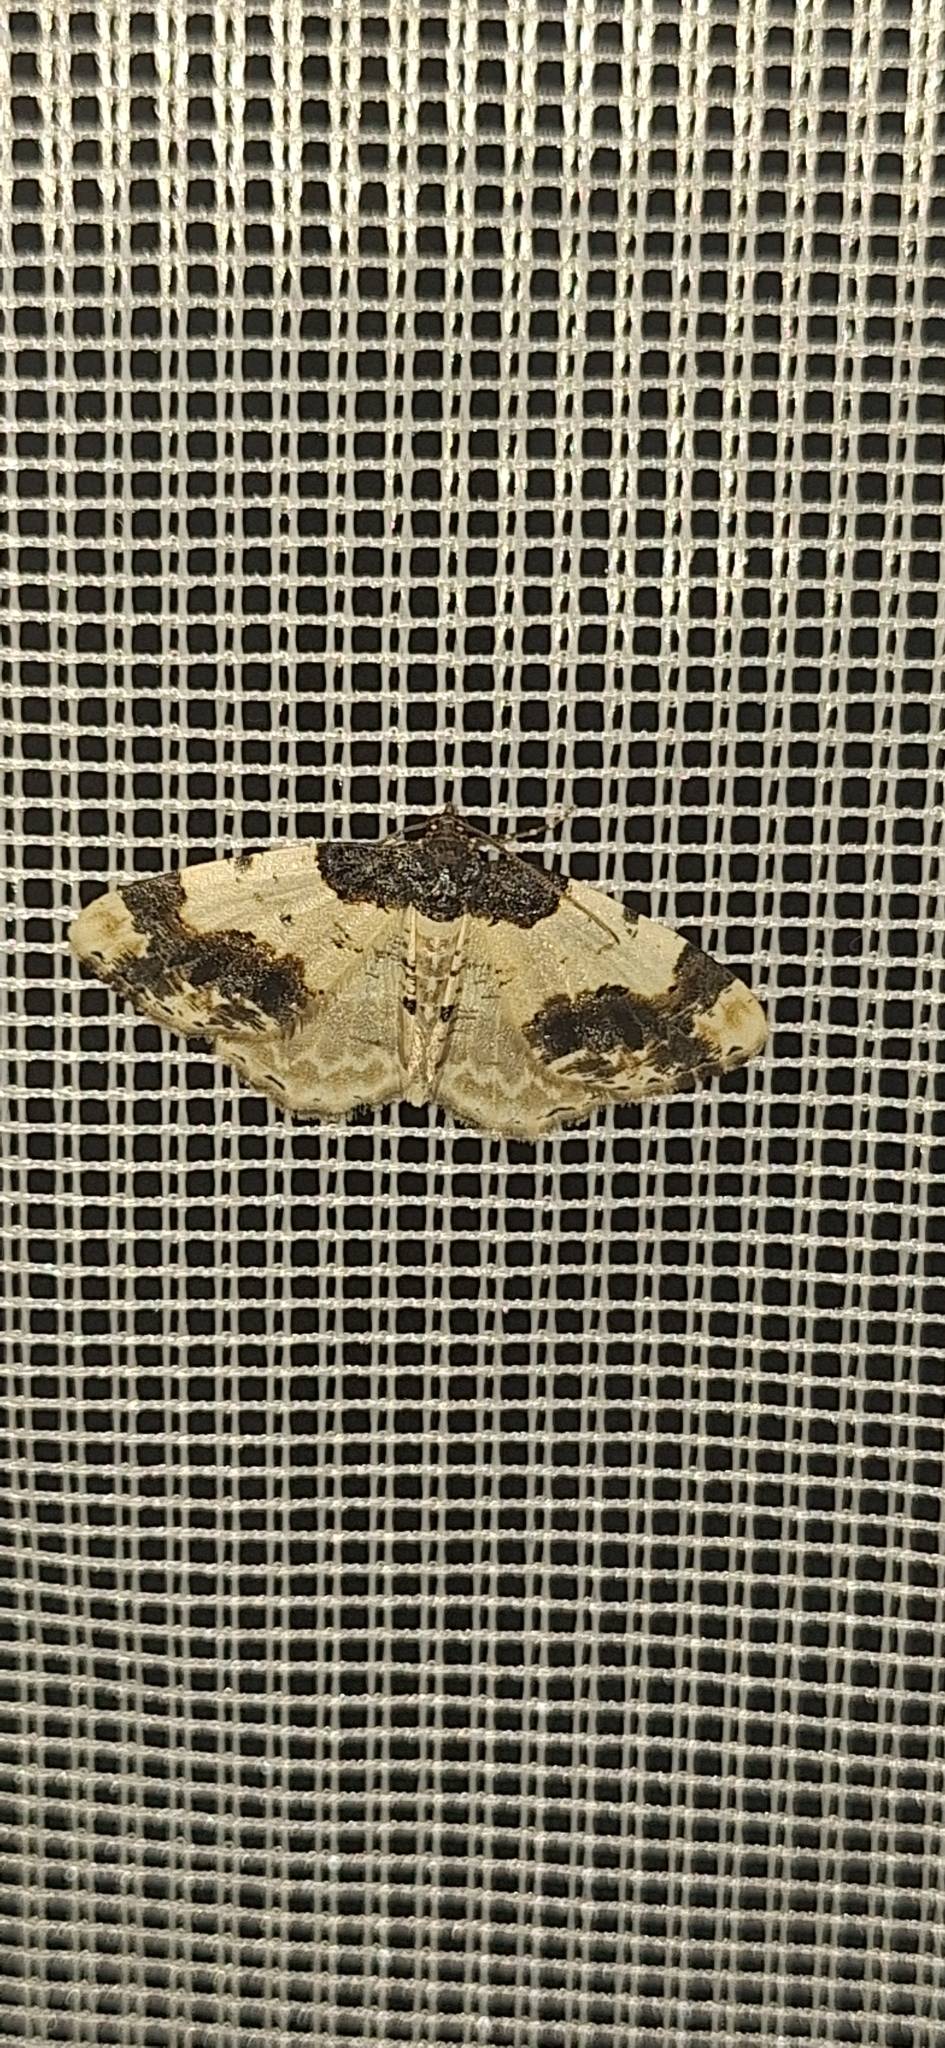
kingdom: Animalia
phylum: Arthropoda
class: Insecta
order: Lepidoptera
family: Geometridae
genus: Ligdia
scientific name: Ligdia adustata
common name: Scorched carpet
